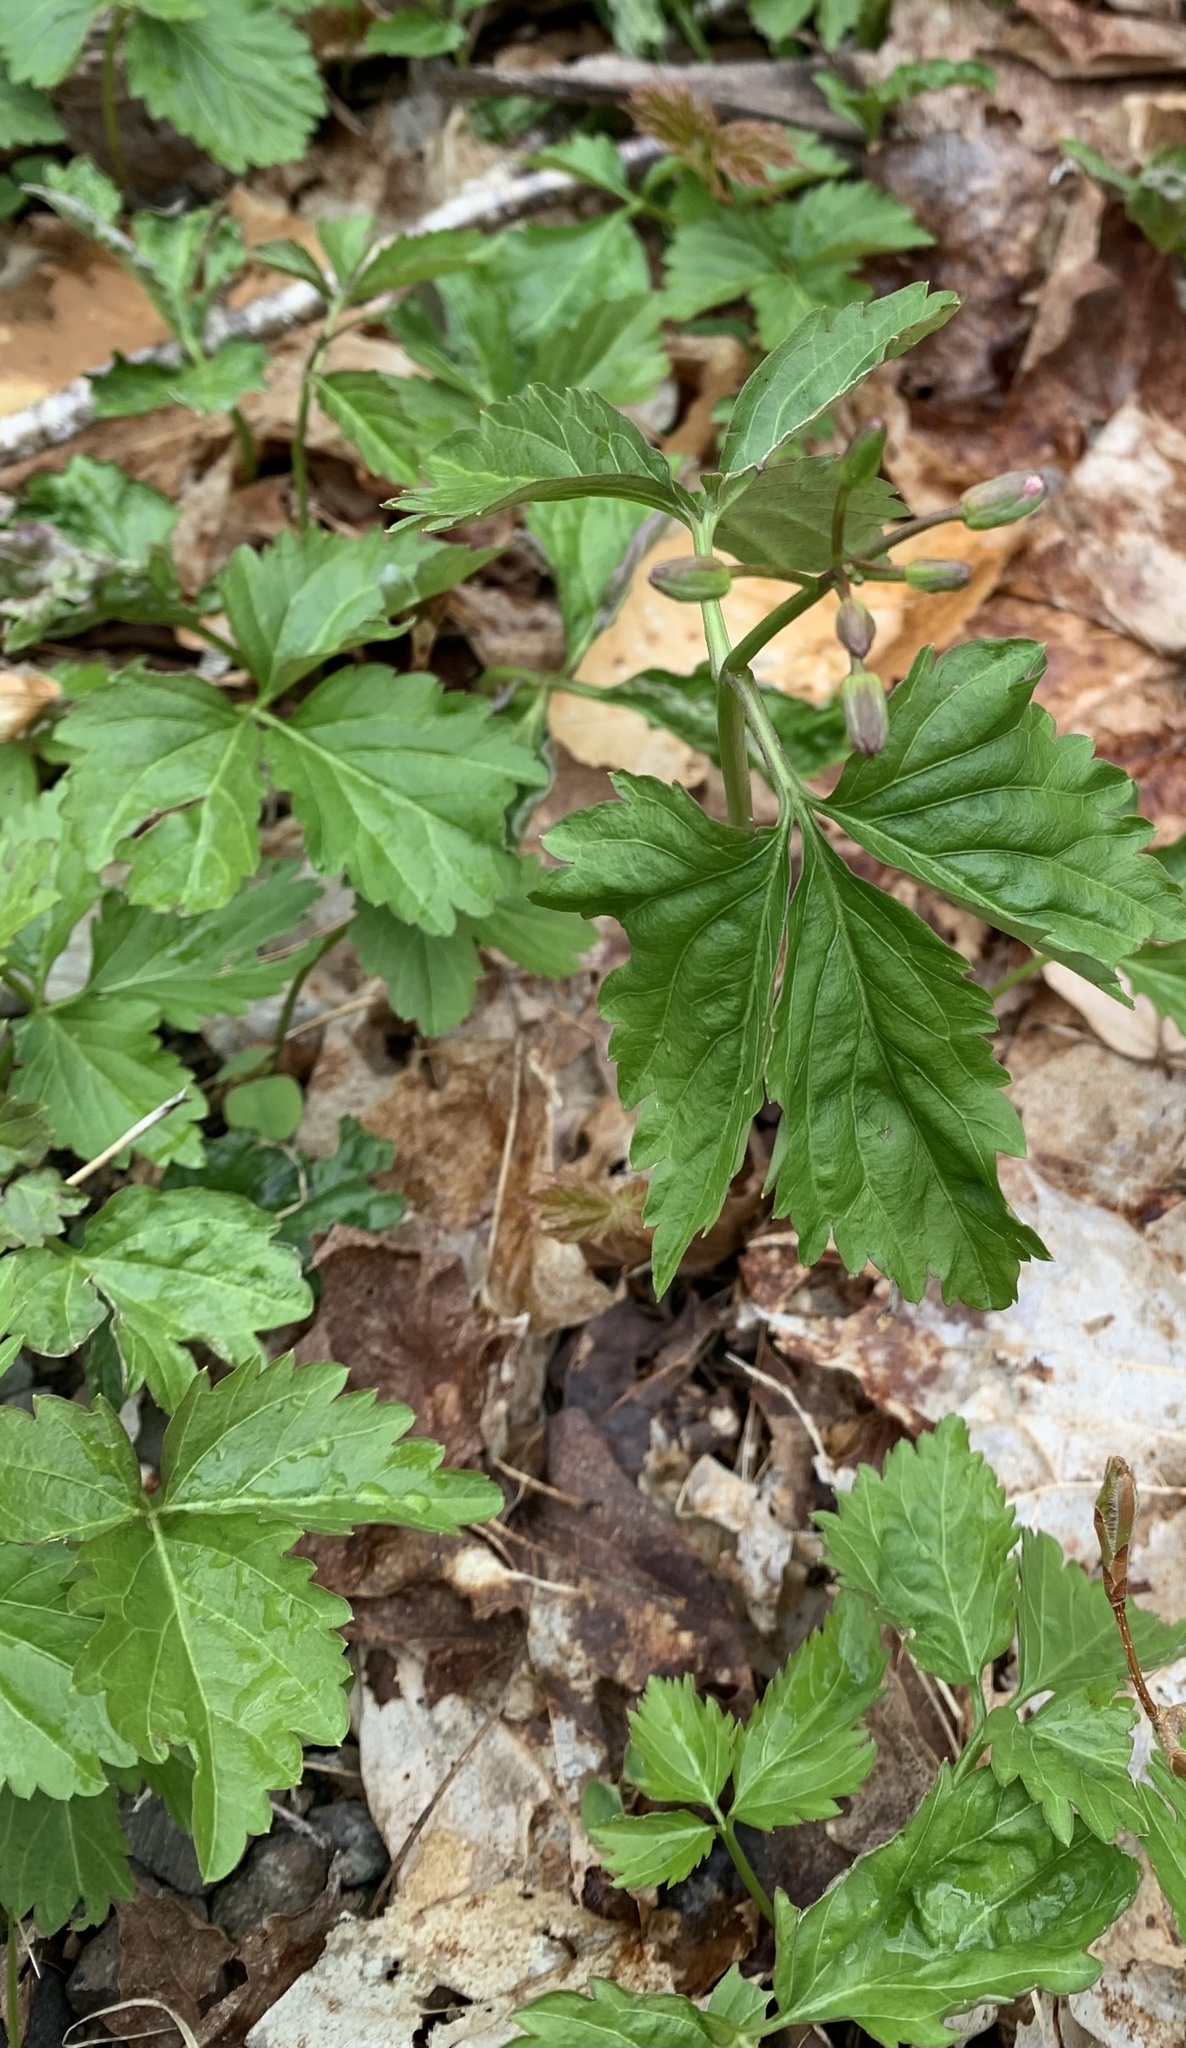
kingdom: Plantae
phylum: Tracheophyta
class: Magnoliopsida
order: Brassicales
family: Brassicaceae
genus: Cardamine
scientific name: Cardamine diphylla
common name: Broad-leaved toothwort
